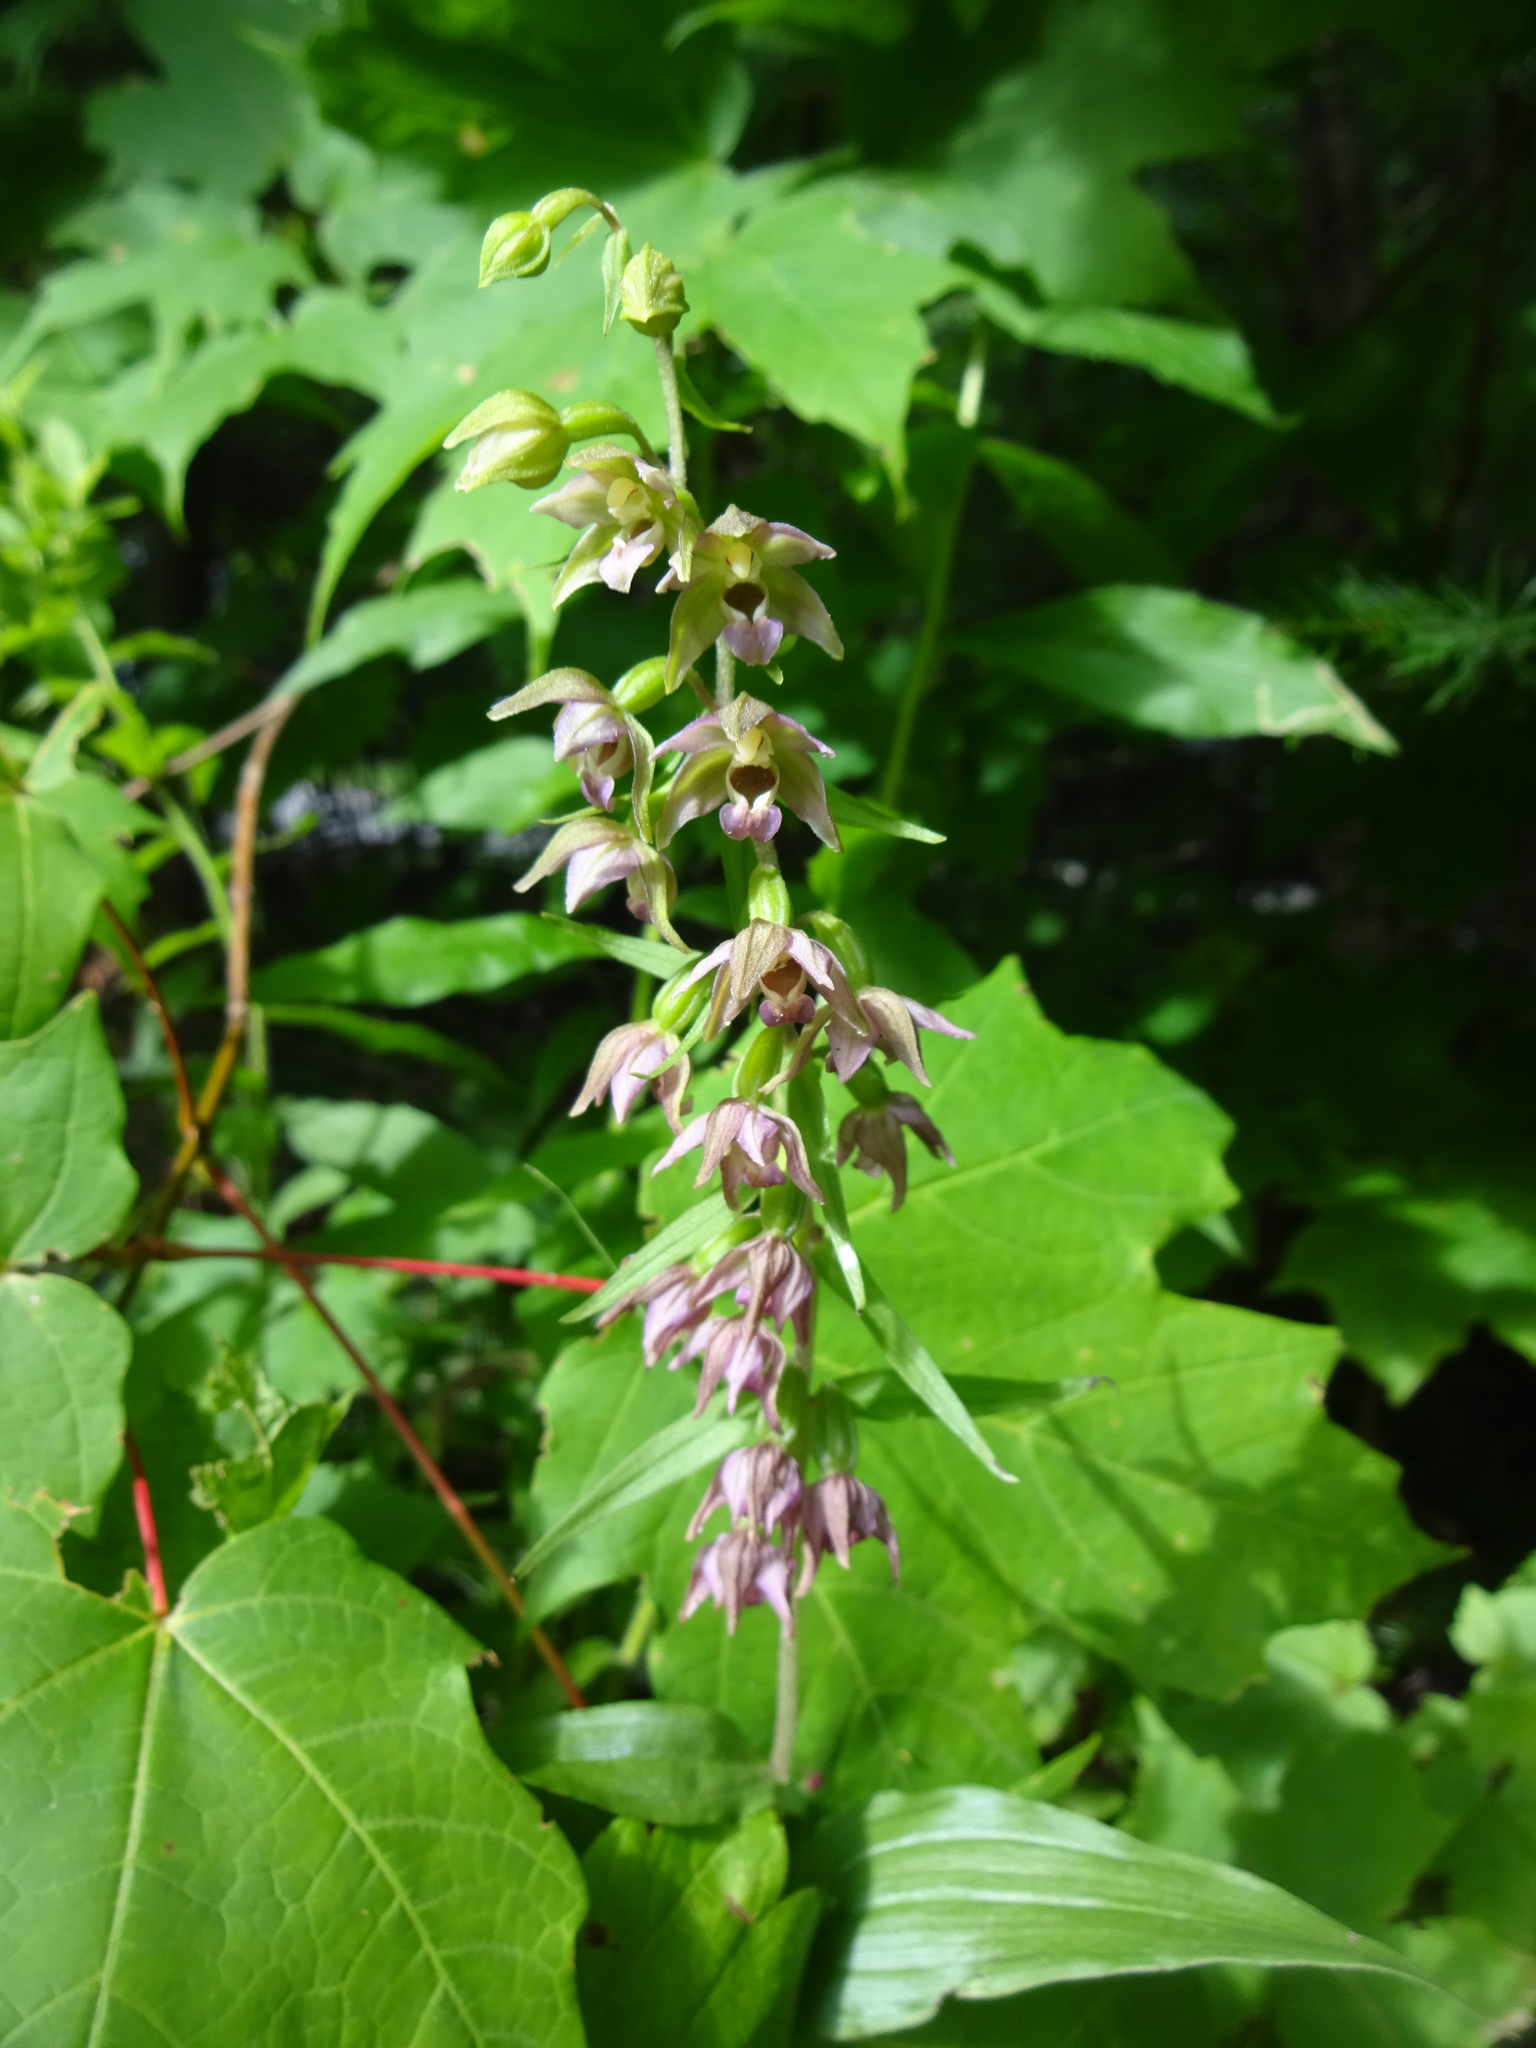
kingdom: Plantae
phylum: Tracheophyta
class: Liliopsida
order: Asparagales
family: Orchidaceae
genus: Epipactis
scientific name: Epipactis helleborine
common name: Broad-leaved helleborine
